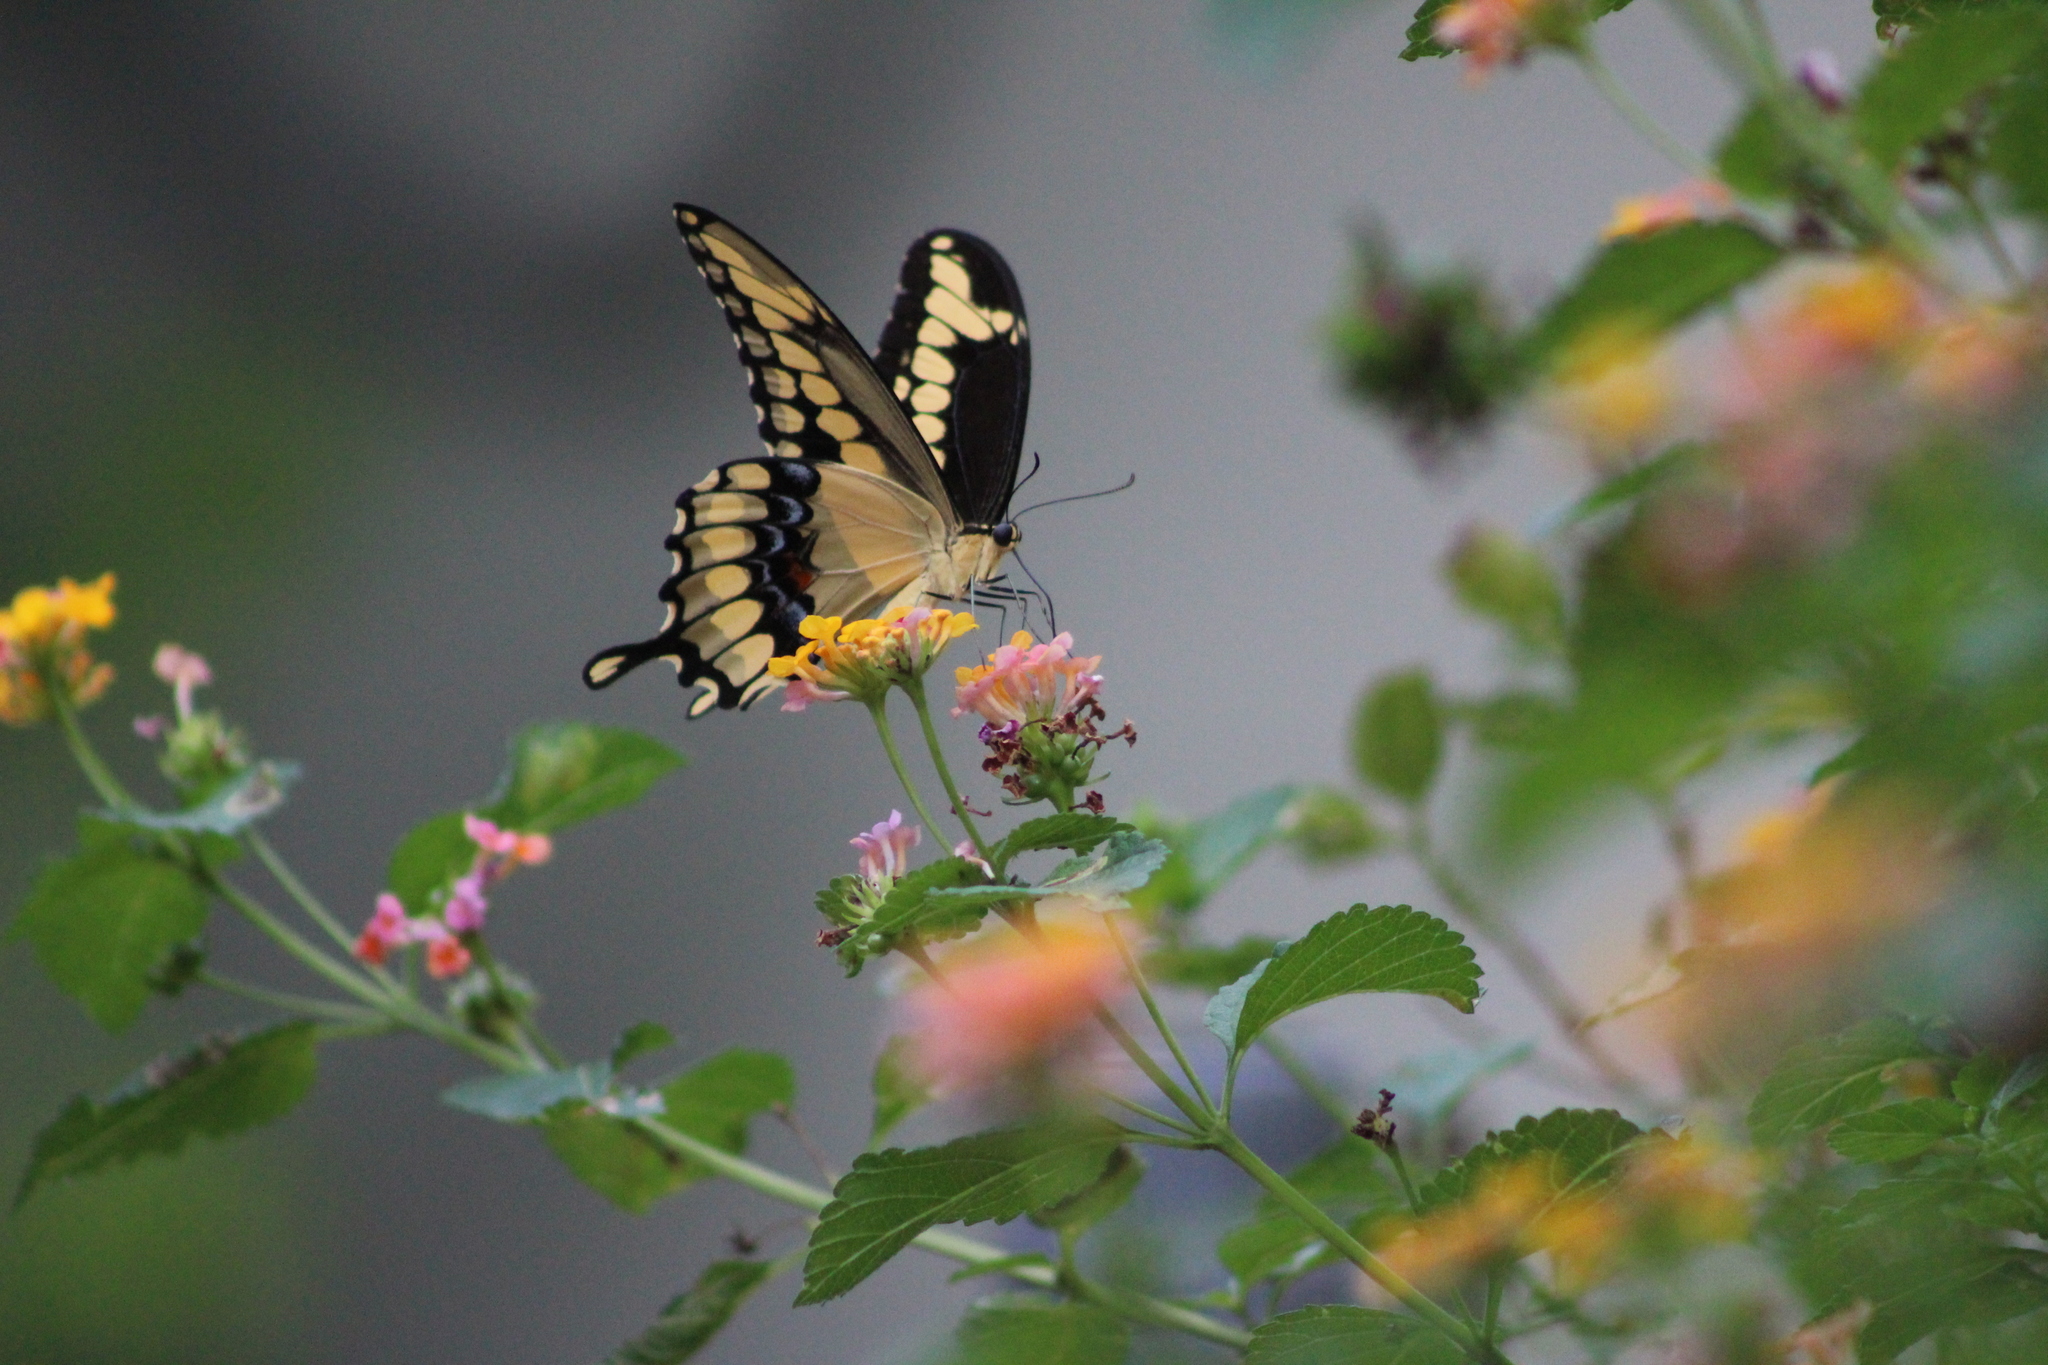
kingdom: Animalia
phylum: Arthropoda
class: Insecta
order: Lepidoptera
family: Papilionidae
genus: Papilio
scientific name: Papilio cresphontes
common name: Giant swallowtail
